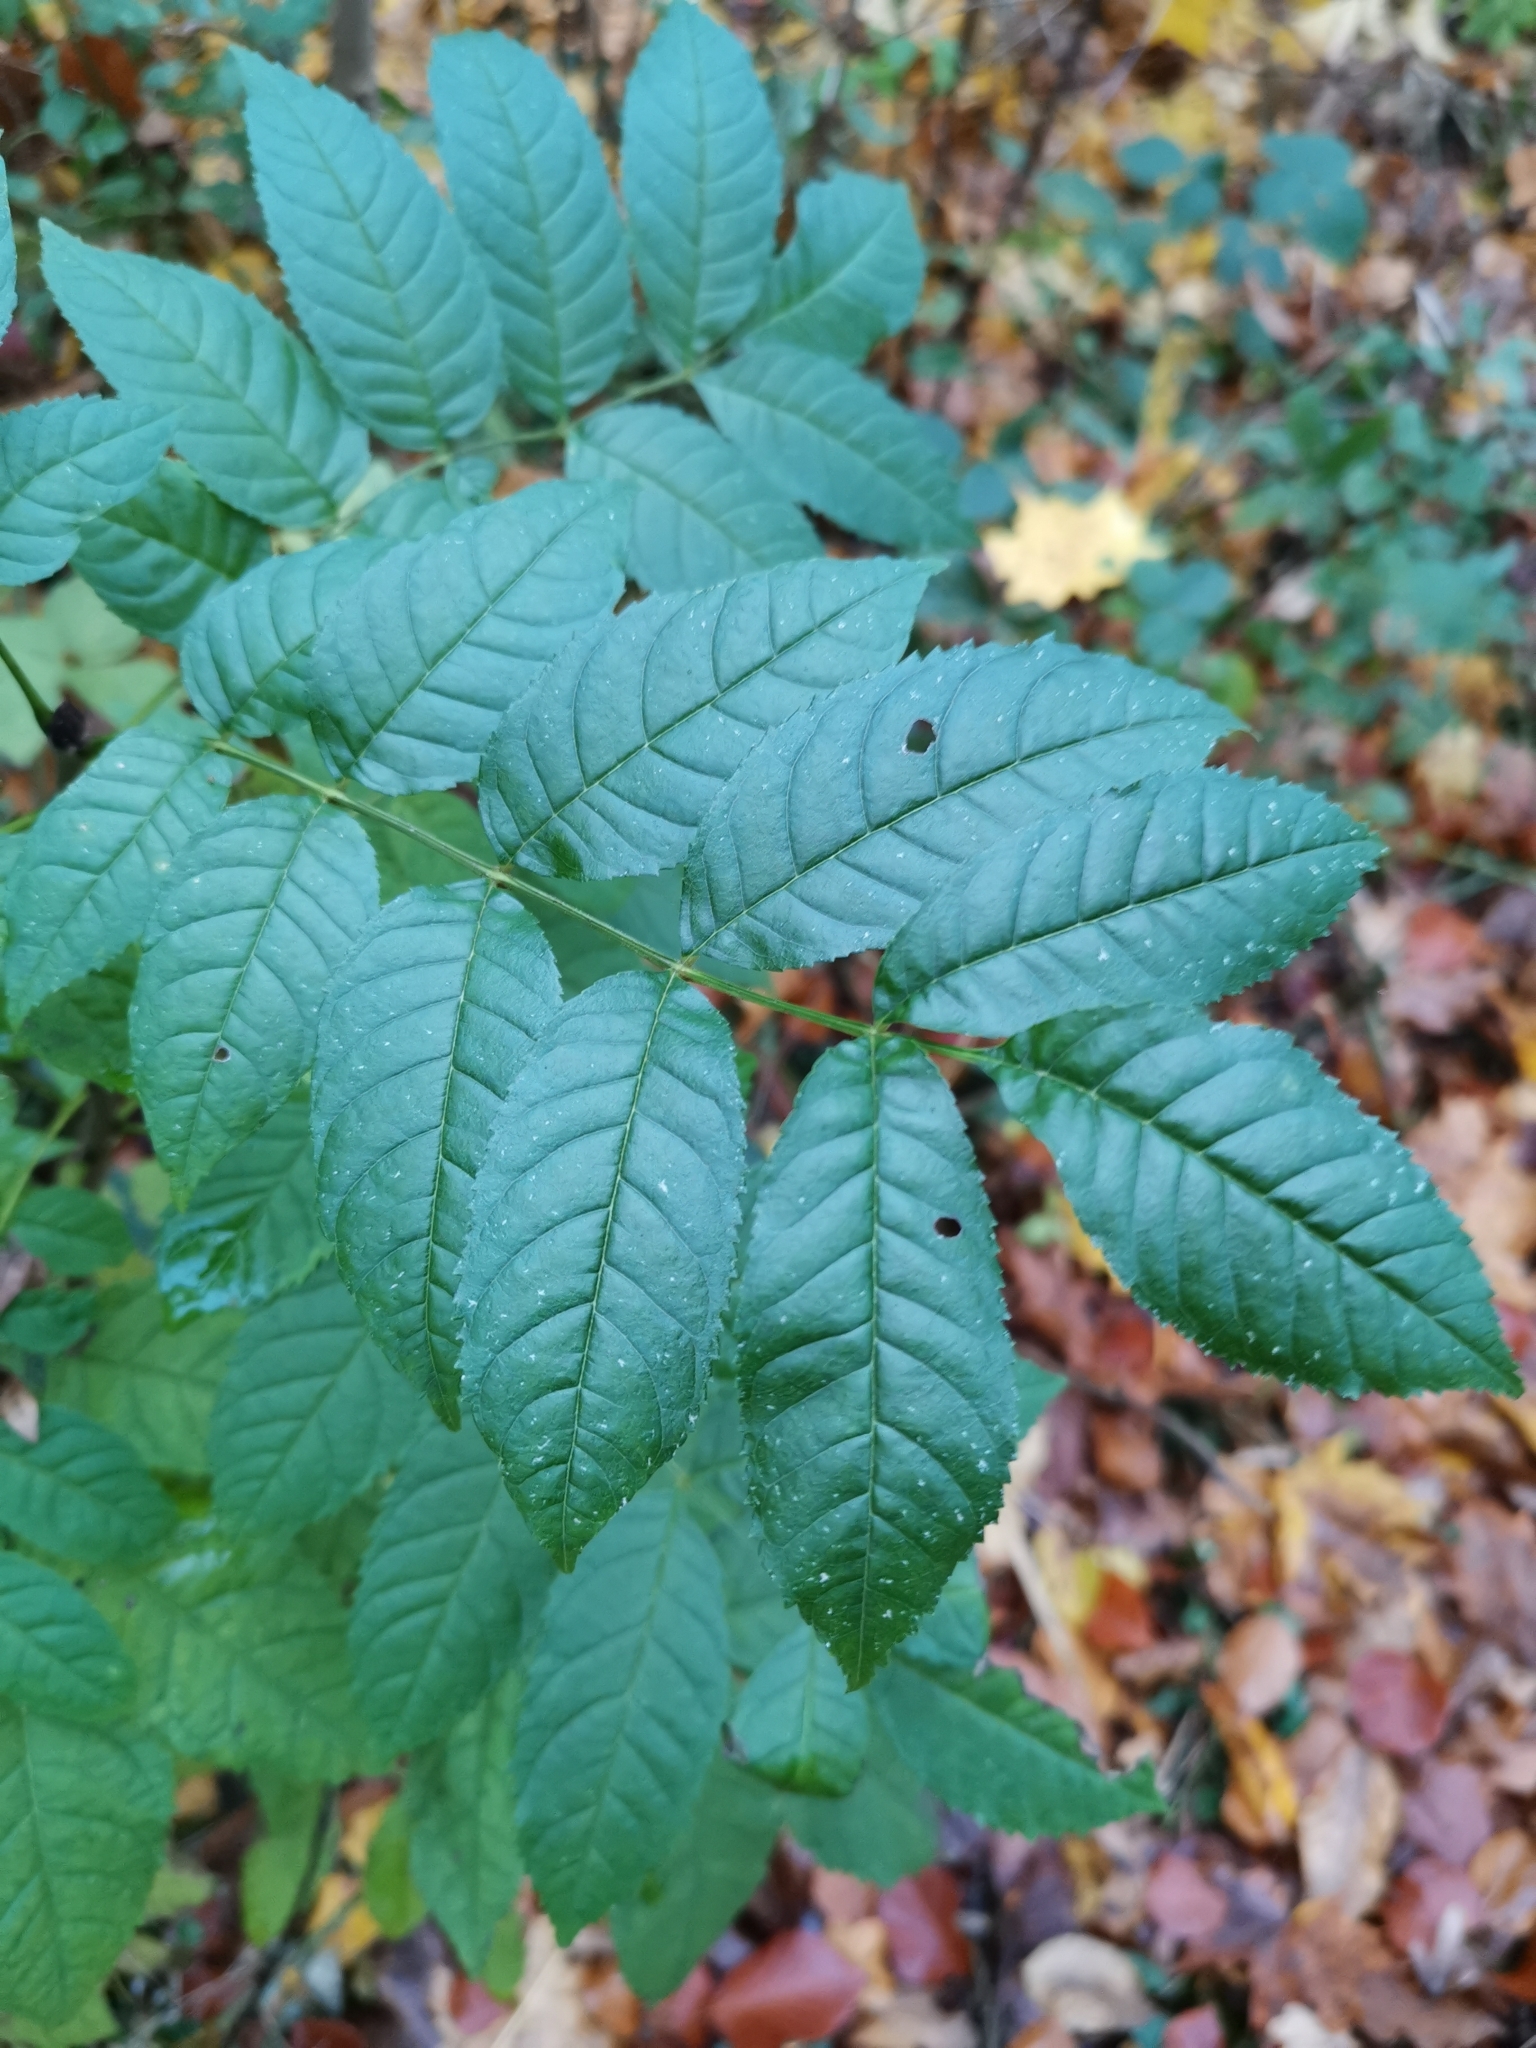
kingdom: Plantae
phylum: Tracheophyta
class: Magnoliopsida
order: Lamiales
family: Oleaceae
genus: Fraxinus
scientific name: Fraxinus excelsior
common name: European ash
